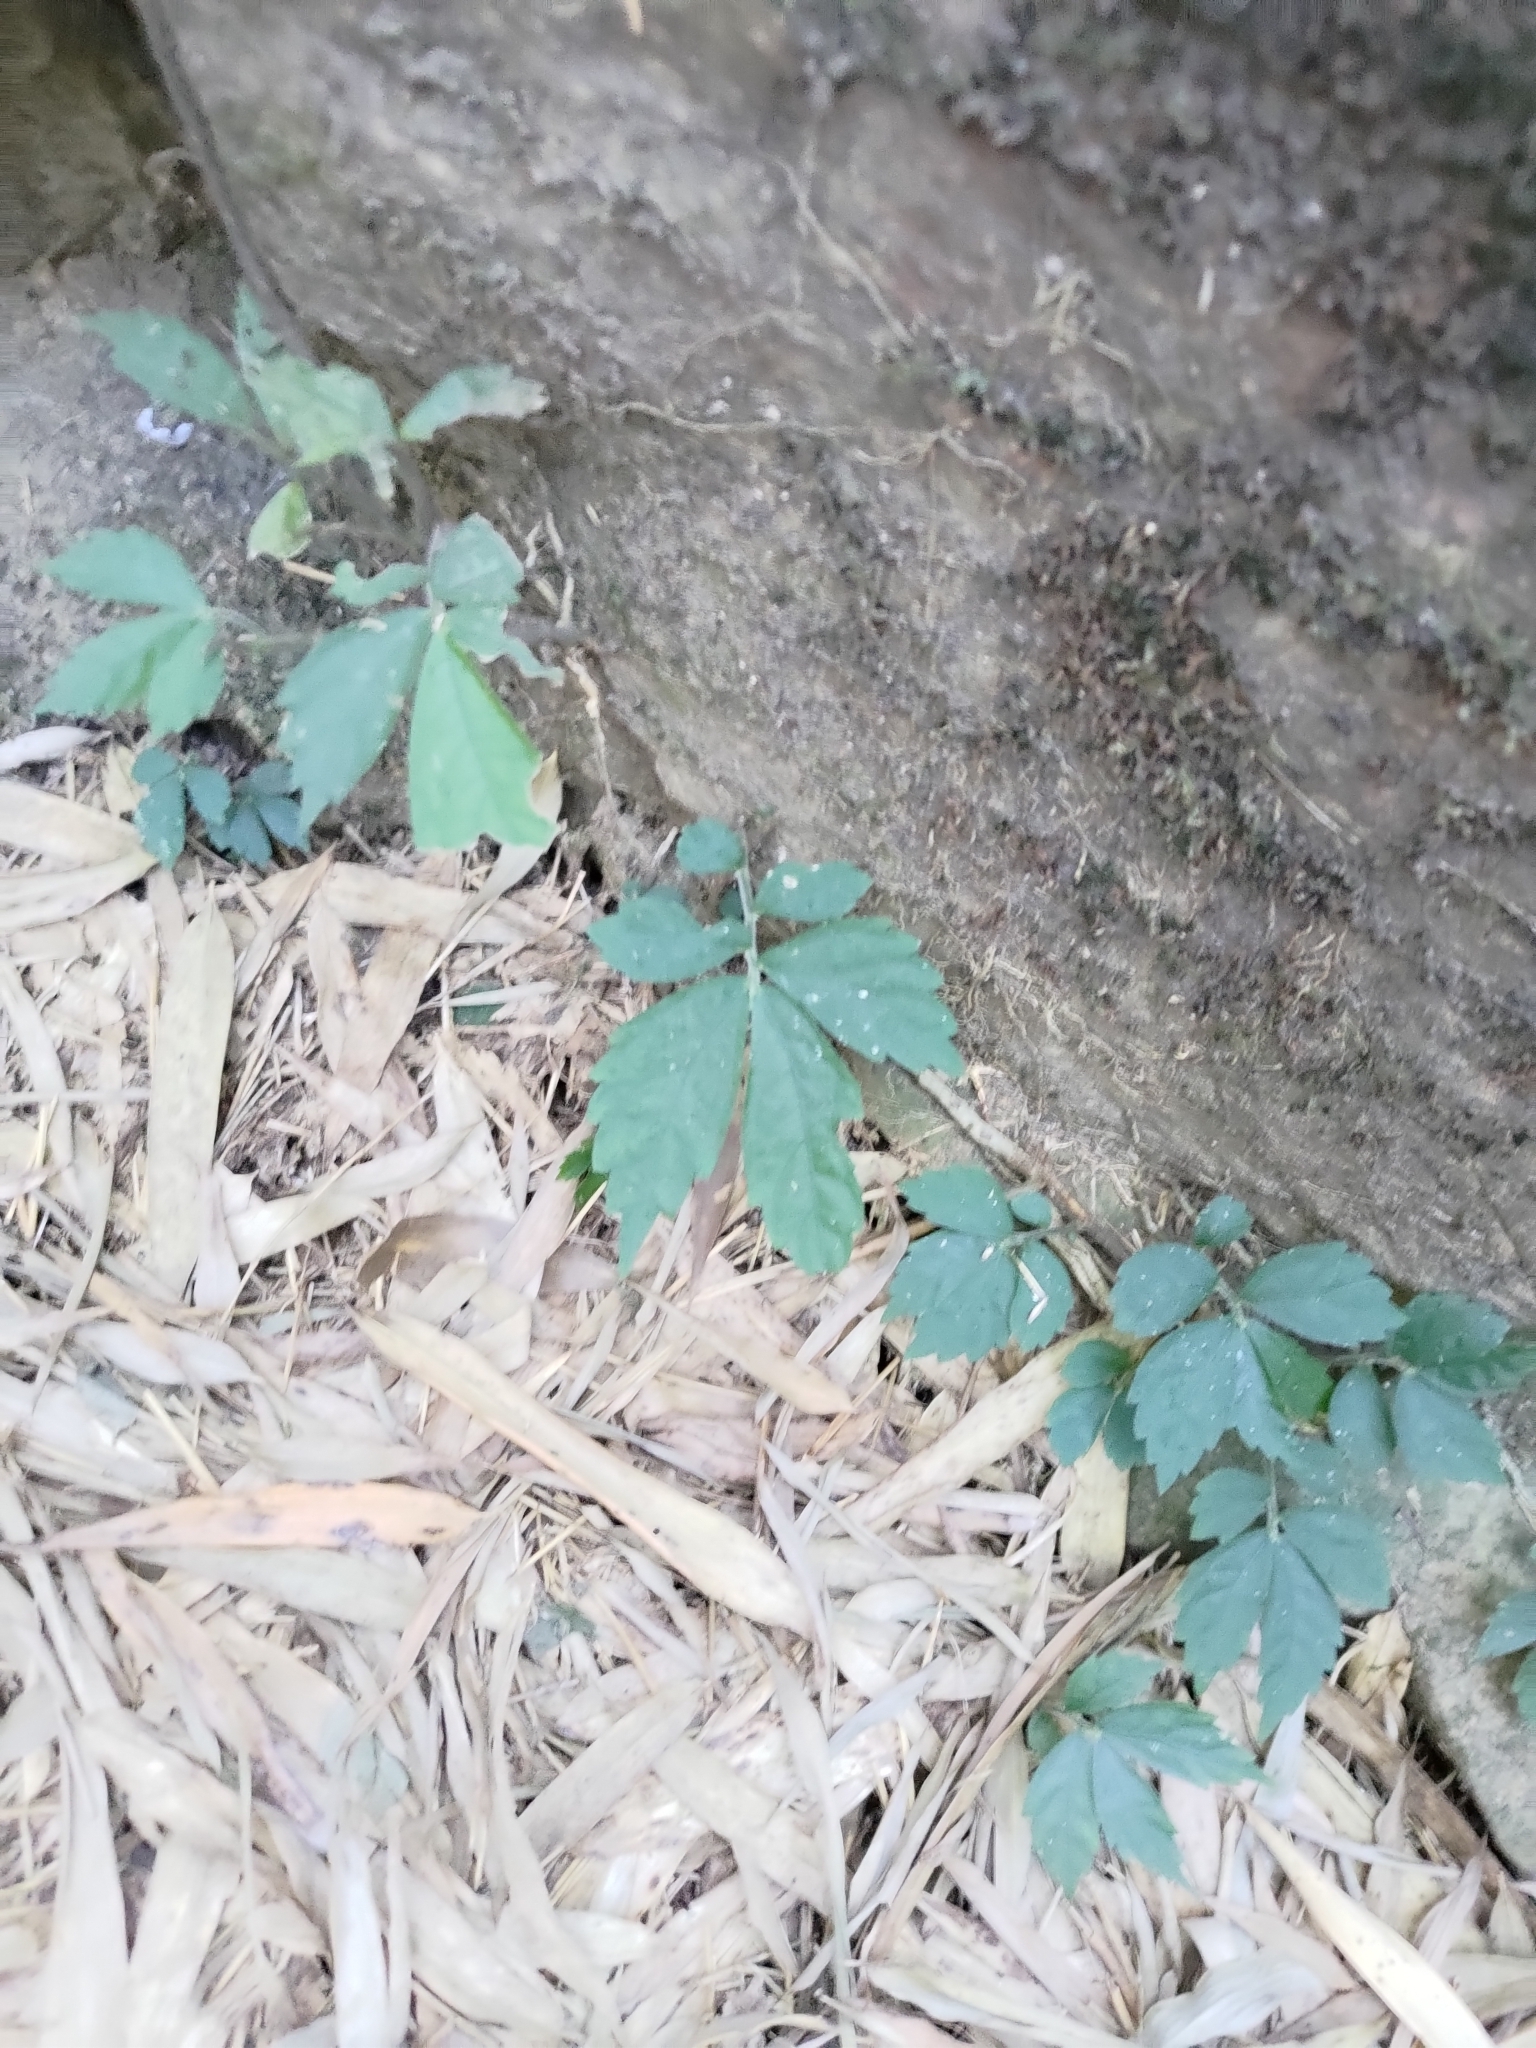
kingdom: Plantae
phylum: Tracheophyta
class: Magnoliopsida
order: Rosales
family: Urticaceae
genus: Elatostema
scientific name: Elatostema lineolatum
